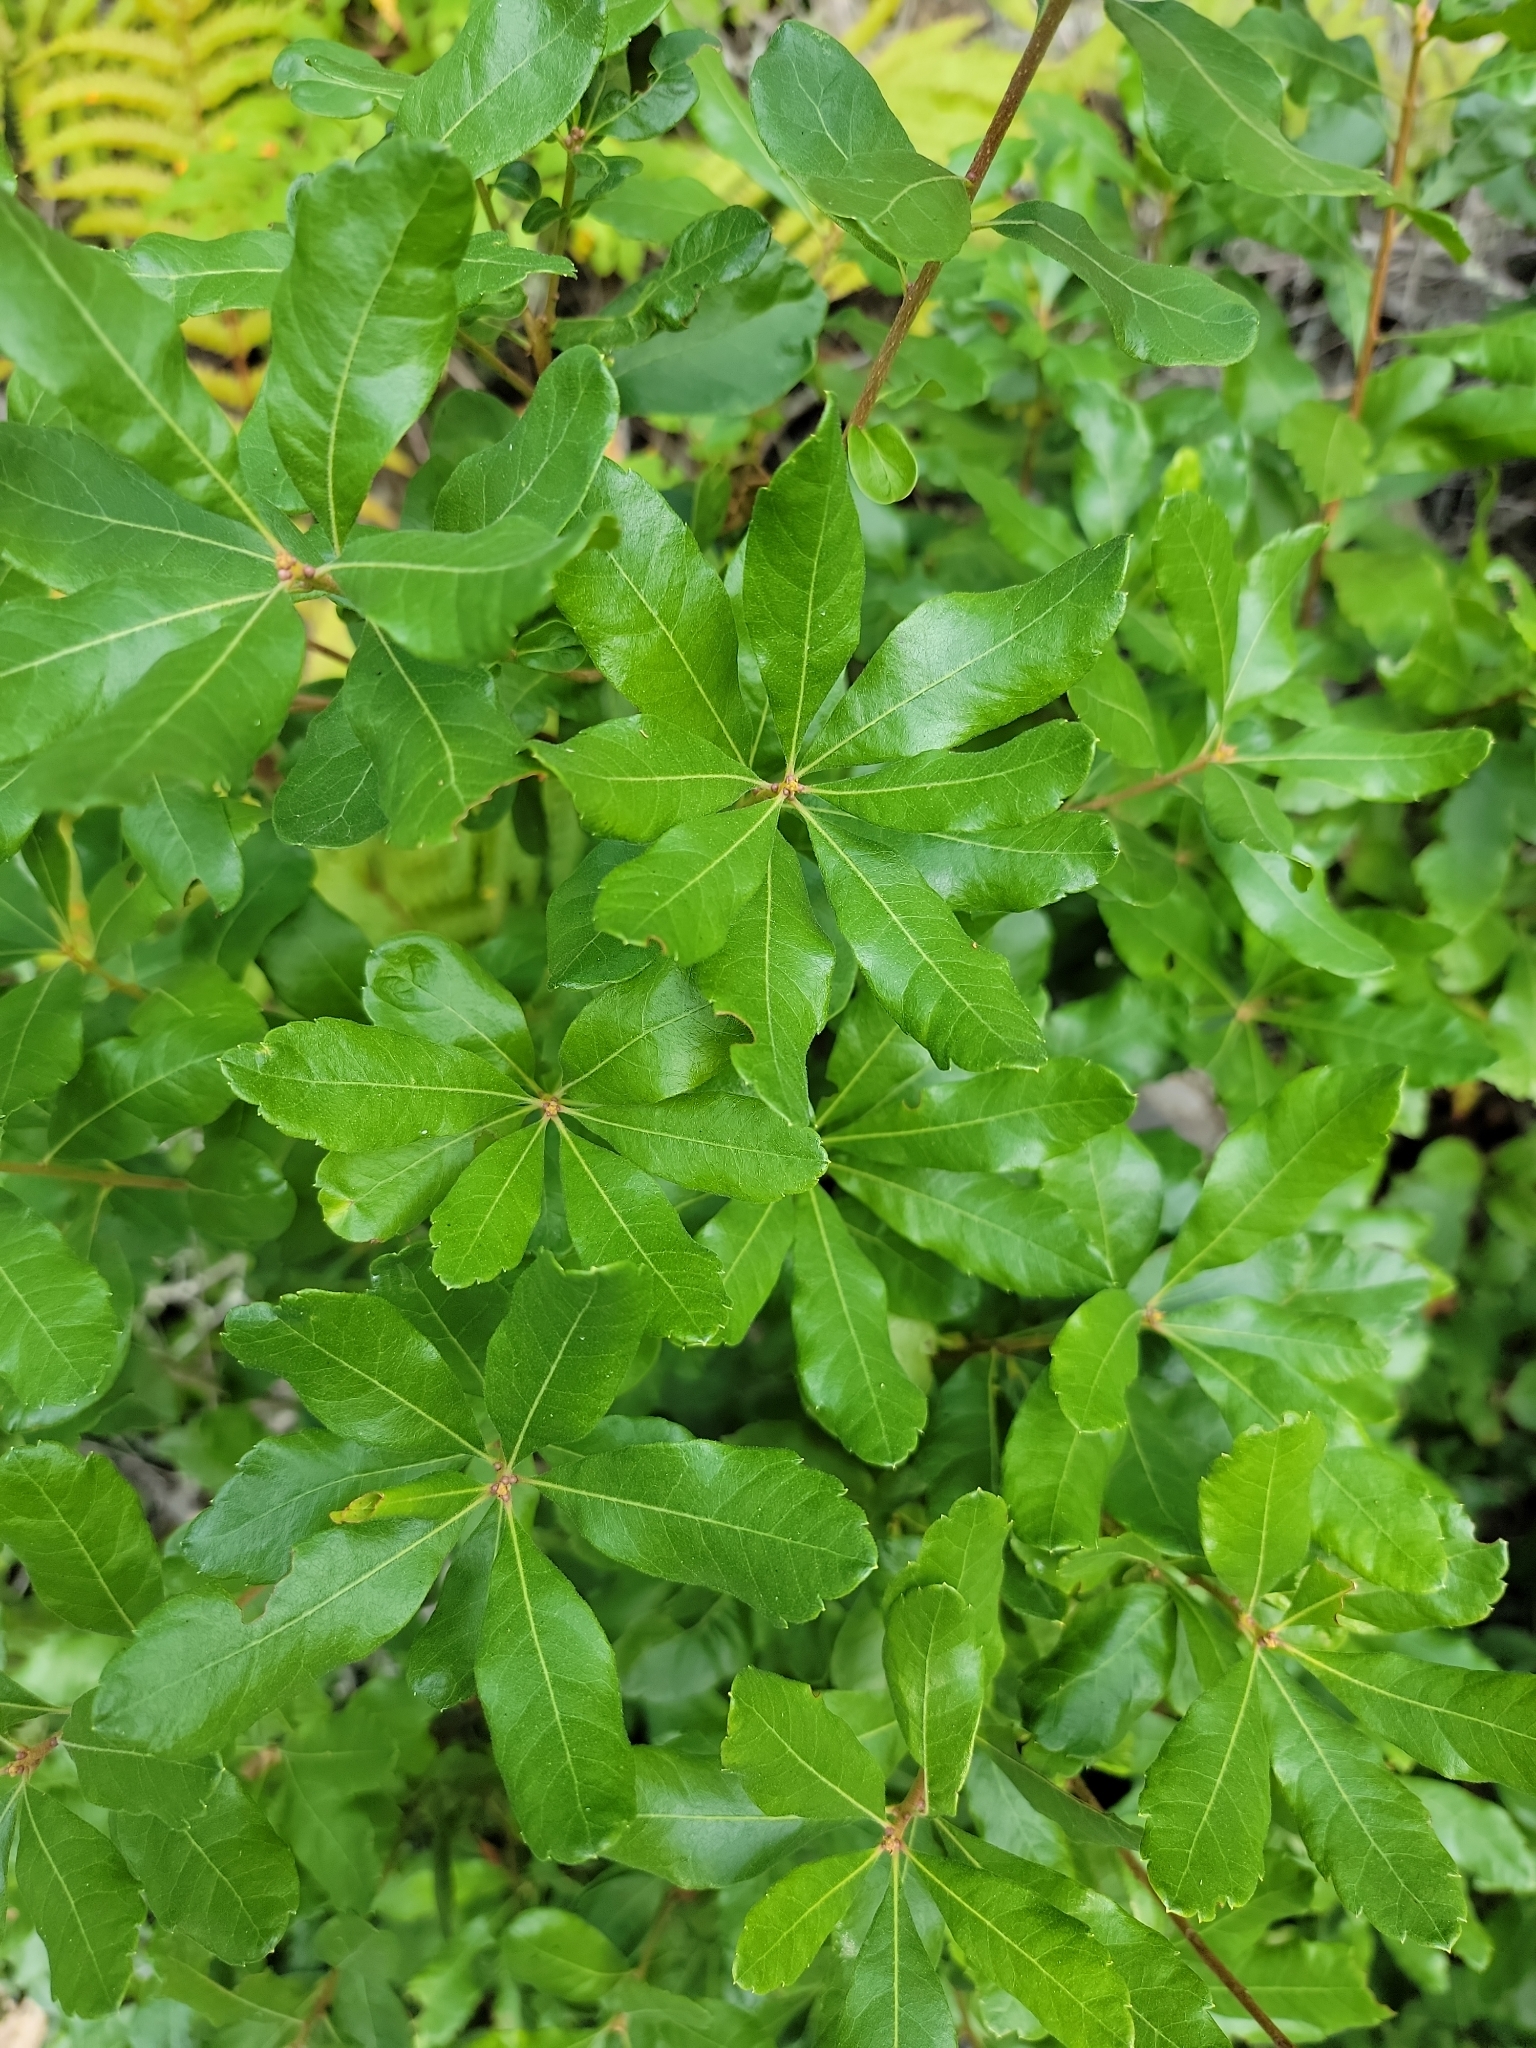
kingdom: Plantae
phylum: Tracheophyta
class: Magnoliopsida
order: Fagales
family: Myricaceae
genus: Morella
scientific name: Morella pensylvanica
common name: Northern bayberry
